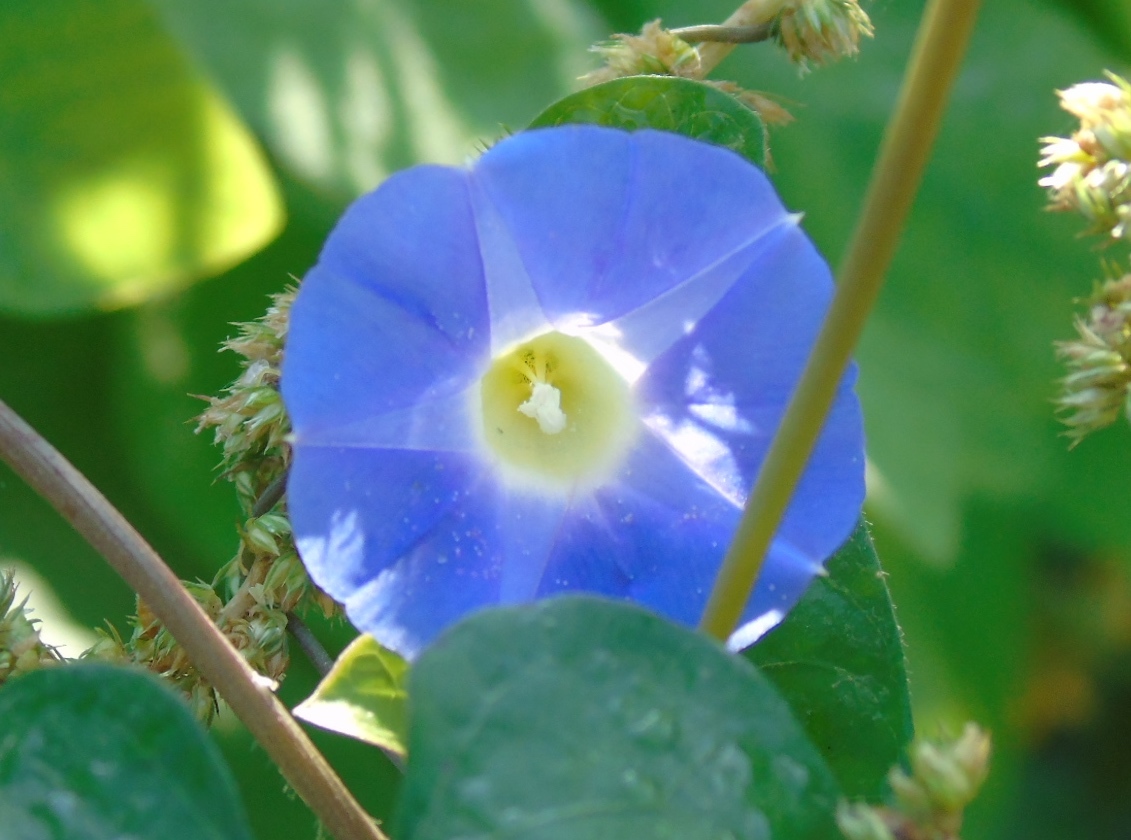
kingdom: Plantae
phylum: Tracheophyta
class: Magnoliopsida
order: Solanales
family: Convolvulaceae
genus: Ipomoea
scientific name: Ipomoea meyeri
